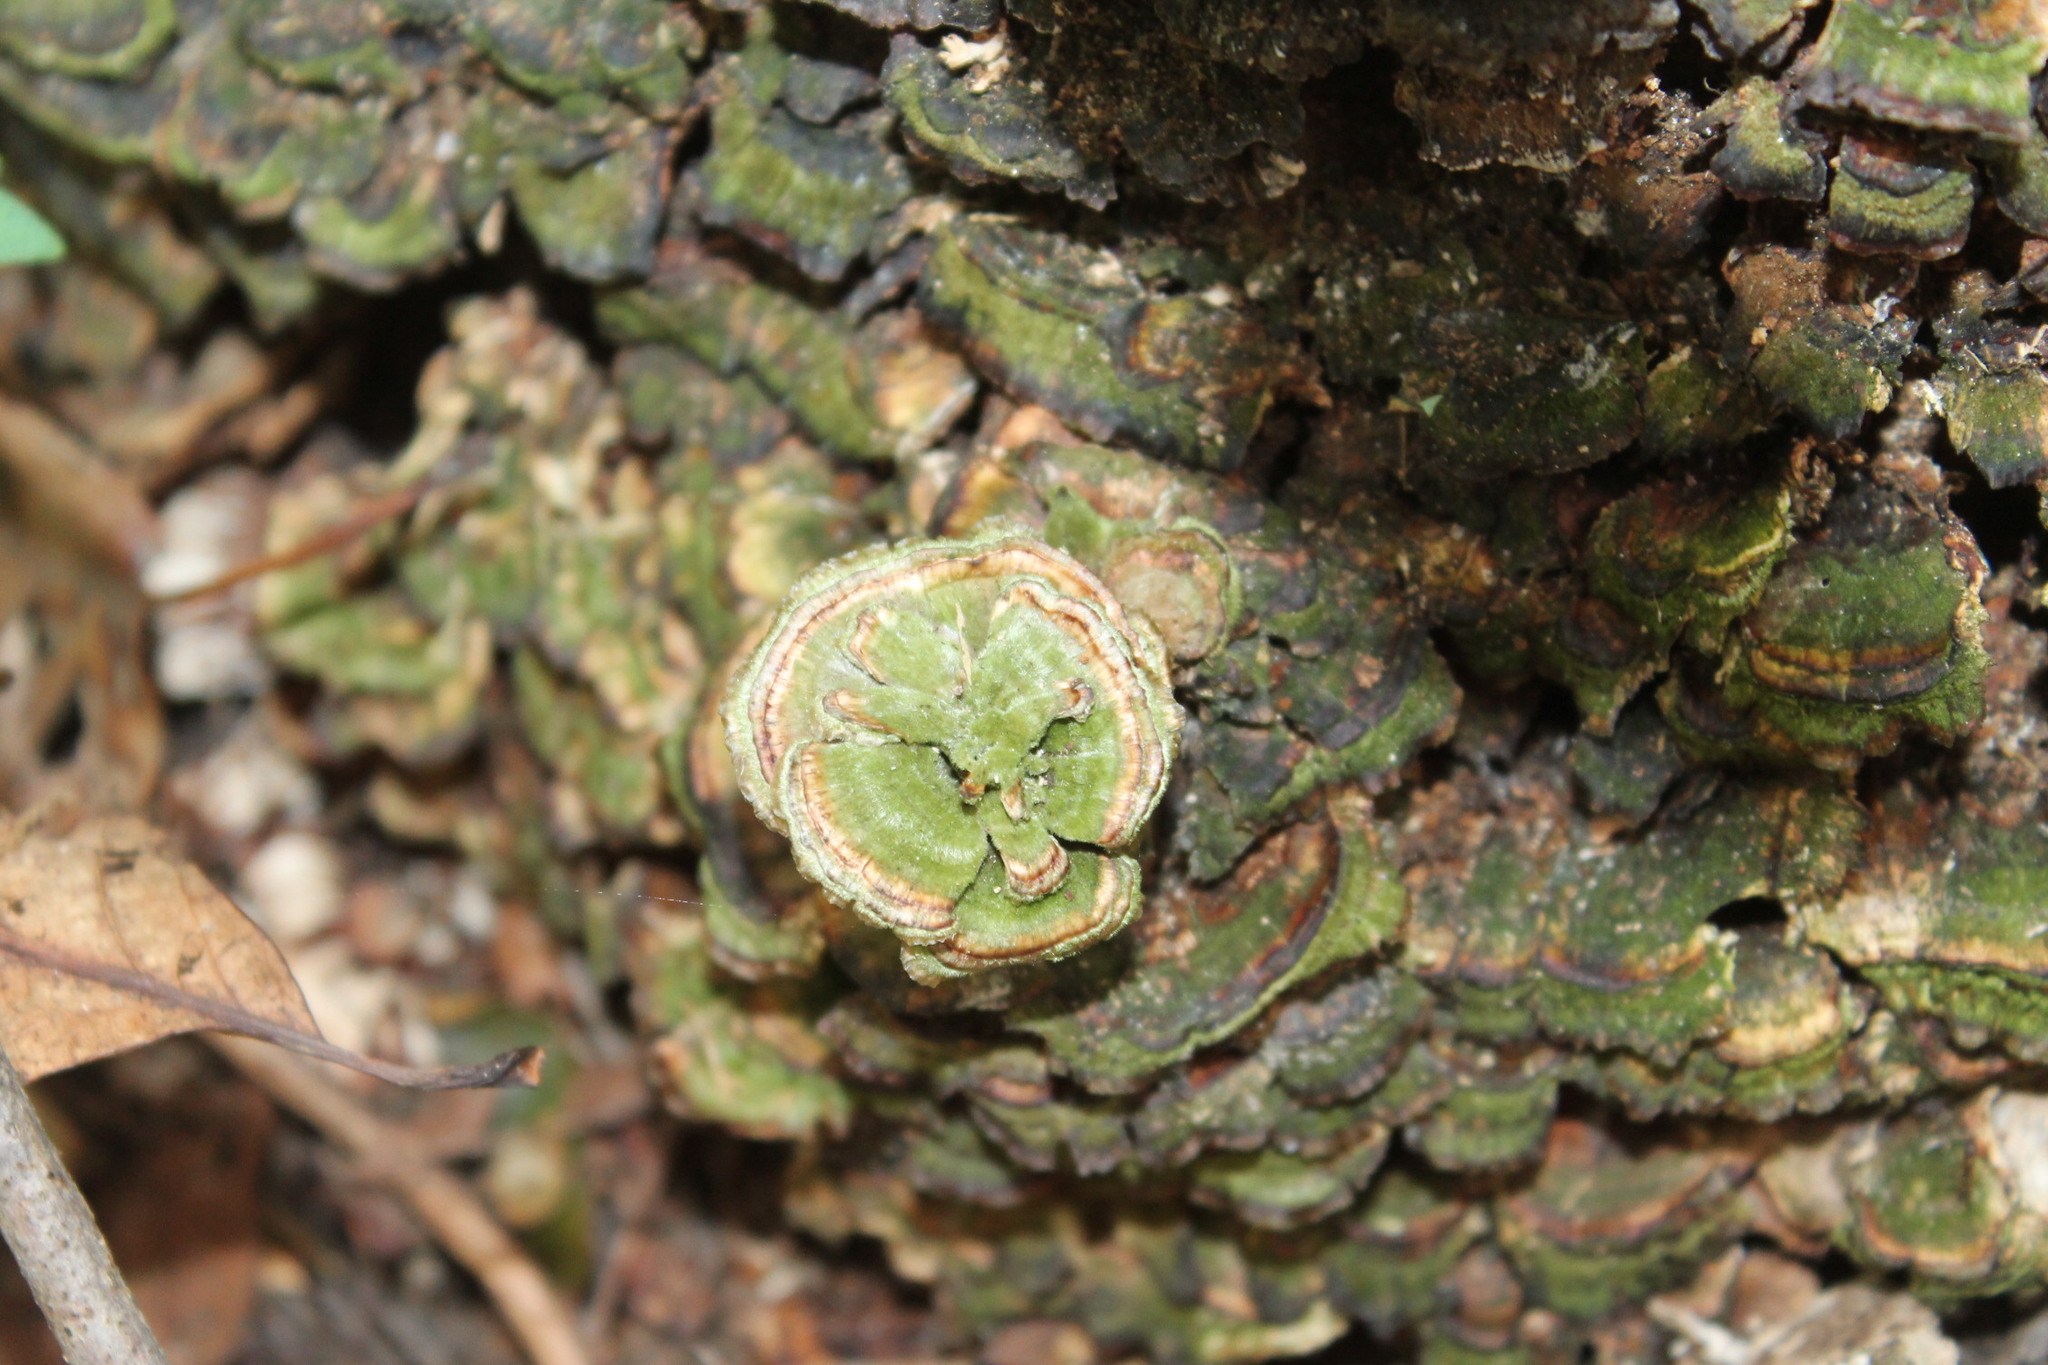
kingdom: Fungi
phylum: Basidiomycota
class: Agaricomycetes
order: Polyporales
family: Polyporaceae
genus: Trametes
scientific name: Trametes versicolor
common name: Turkeytail
